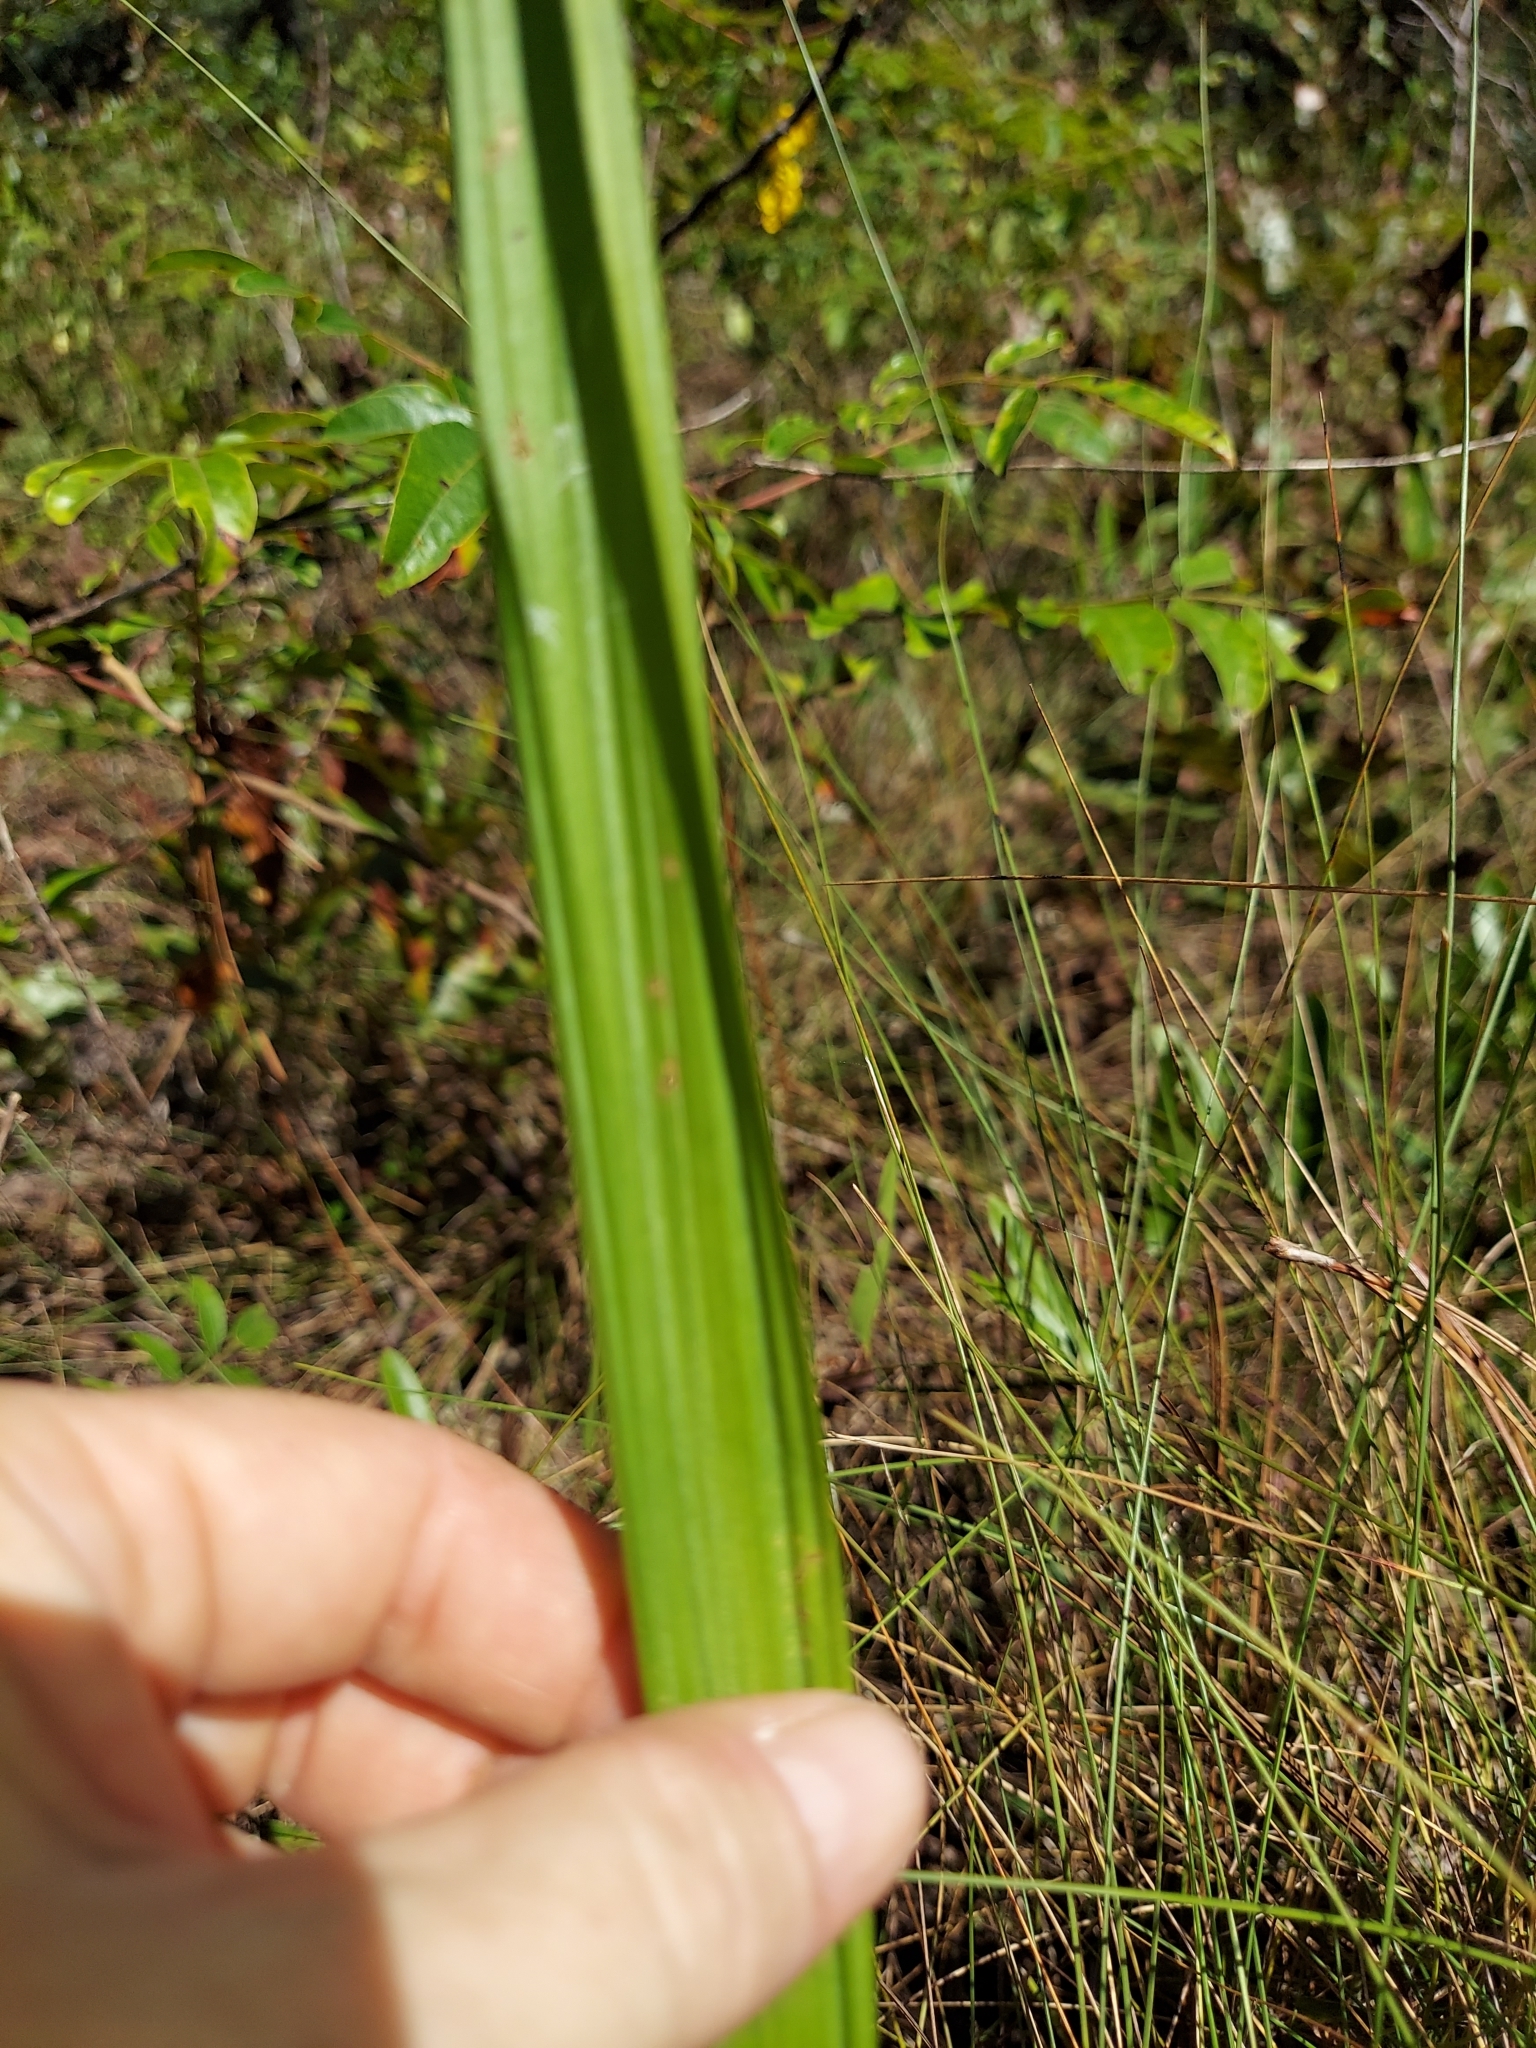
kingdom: Plantae
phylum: Tracheophyta
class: Liliopsida
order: Asparagales
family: Orchidaceae
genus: Eulophia
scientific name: Eulophia ecristata
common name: Giant orchid
